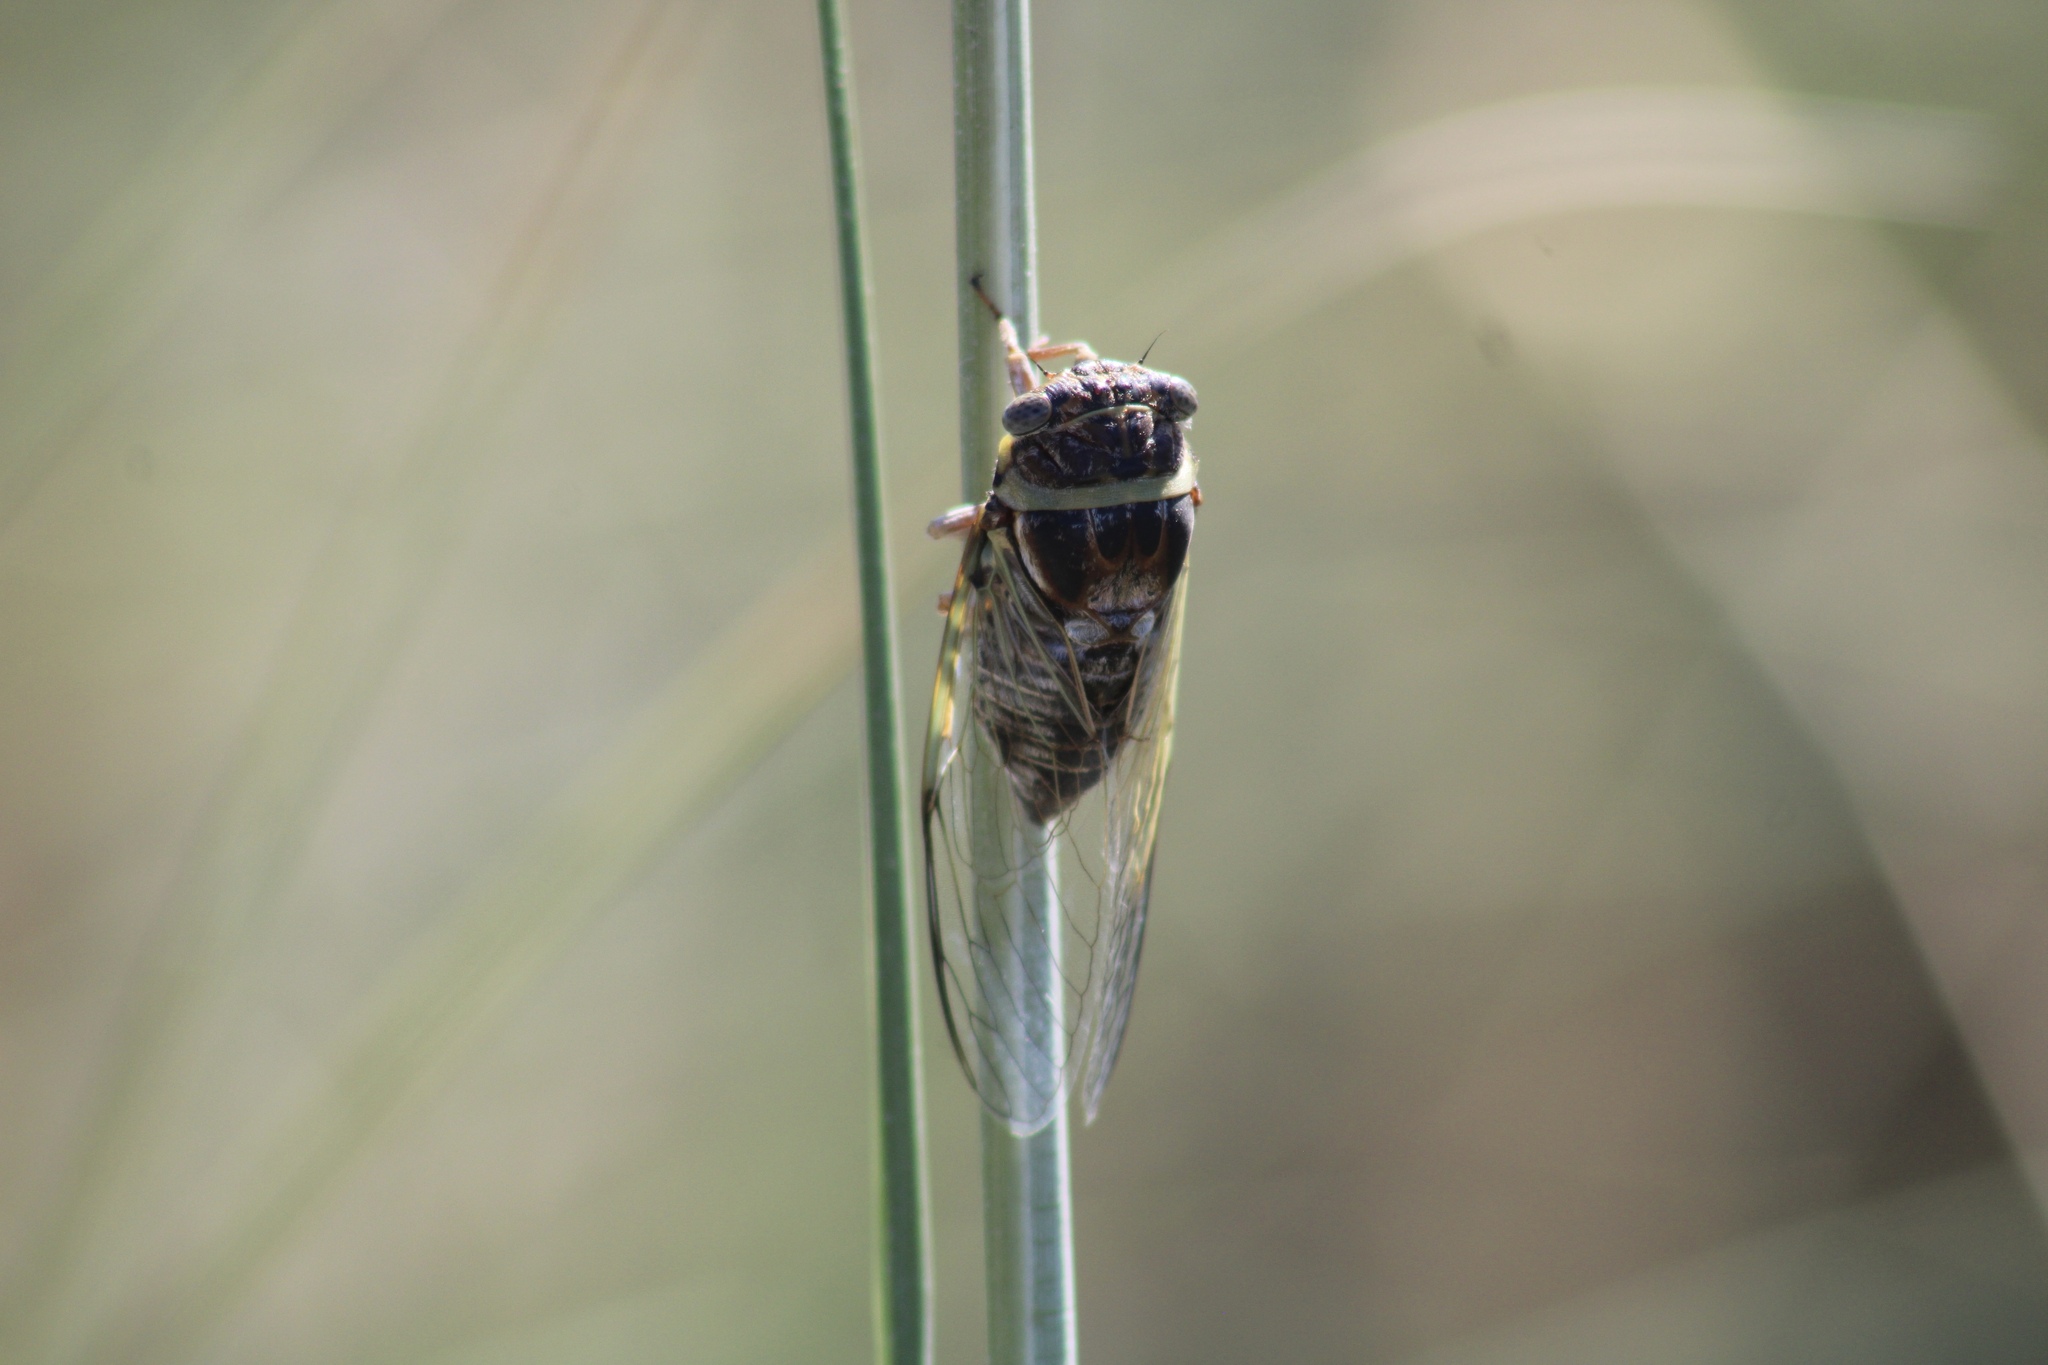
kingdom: Animalia
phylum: Arthropoda
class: Insecta
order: Hemiptera
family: Cicadidae
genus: Diceroprocta
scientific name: Diceroprocta viridifascia
